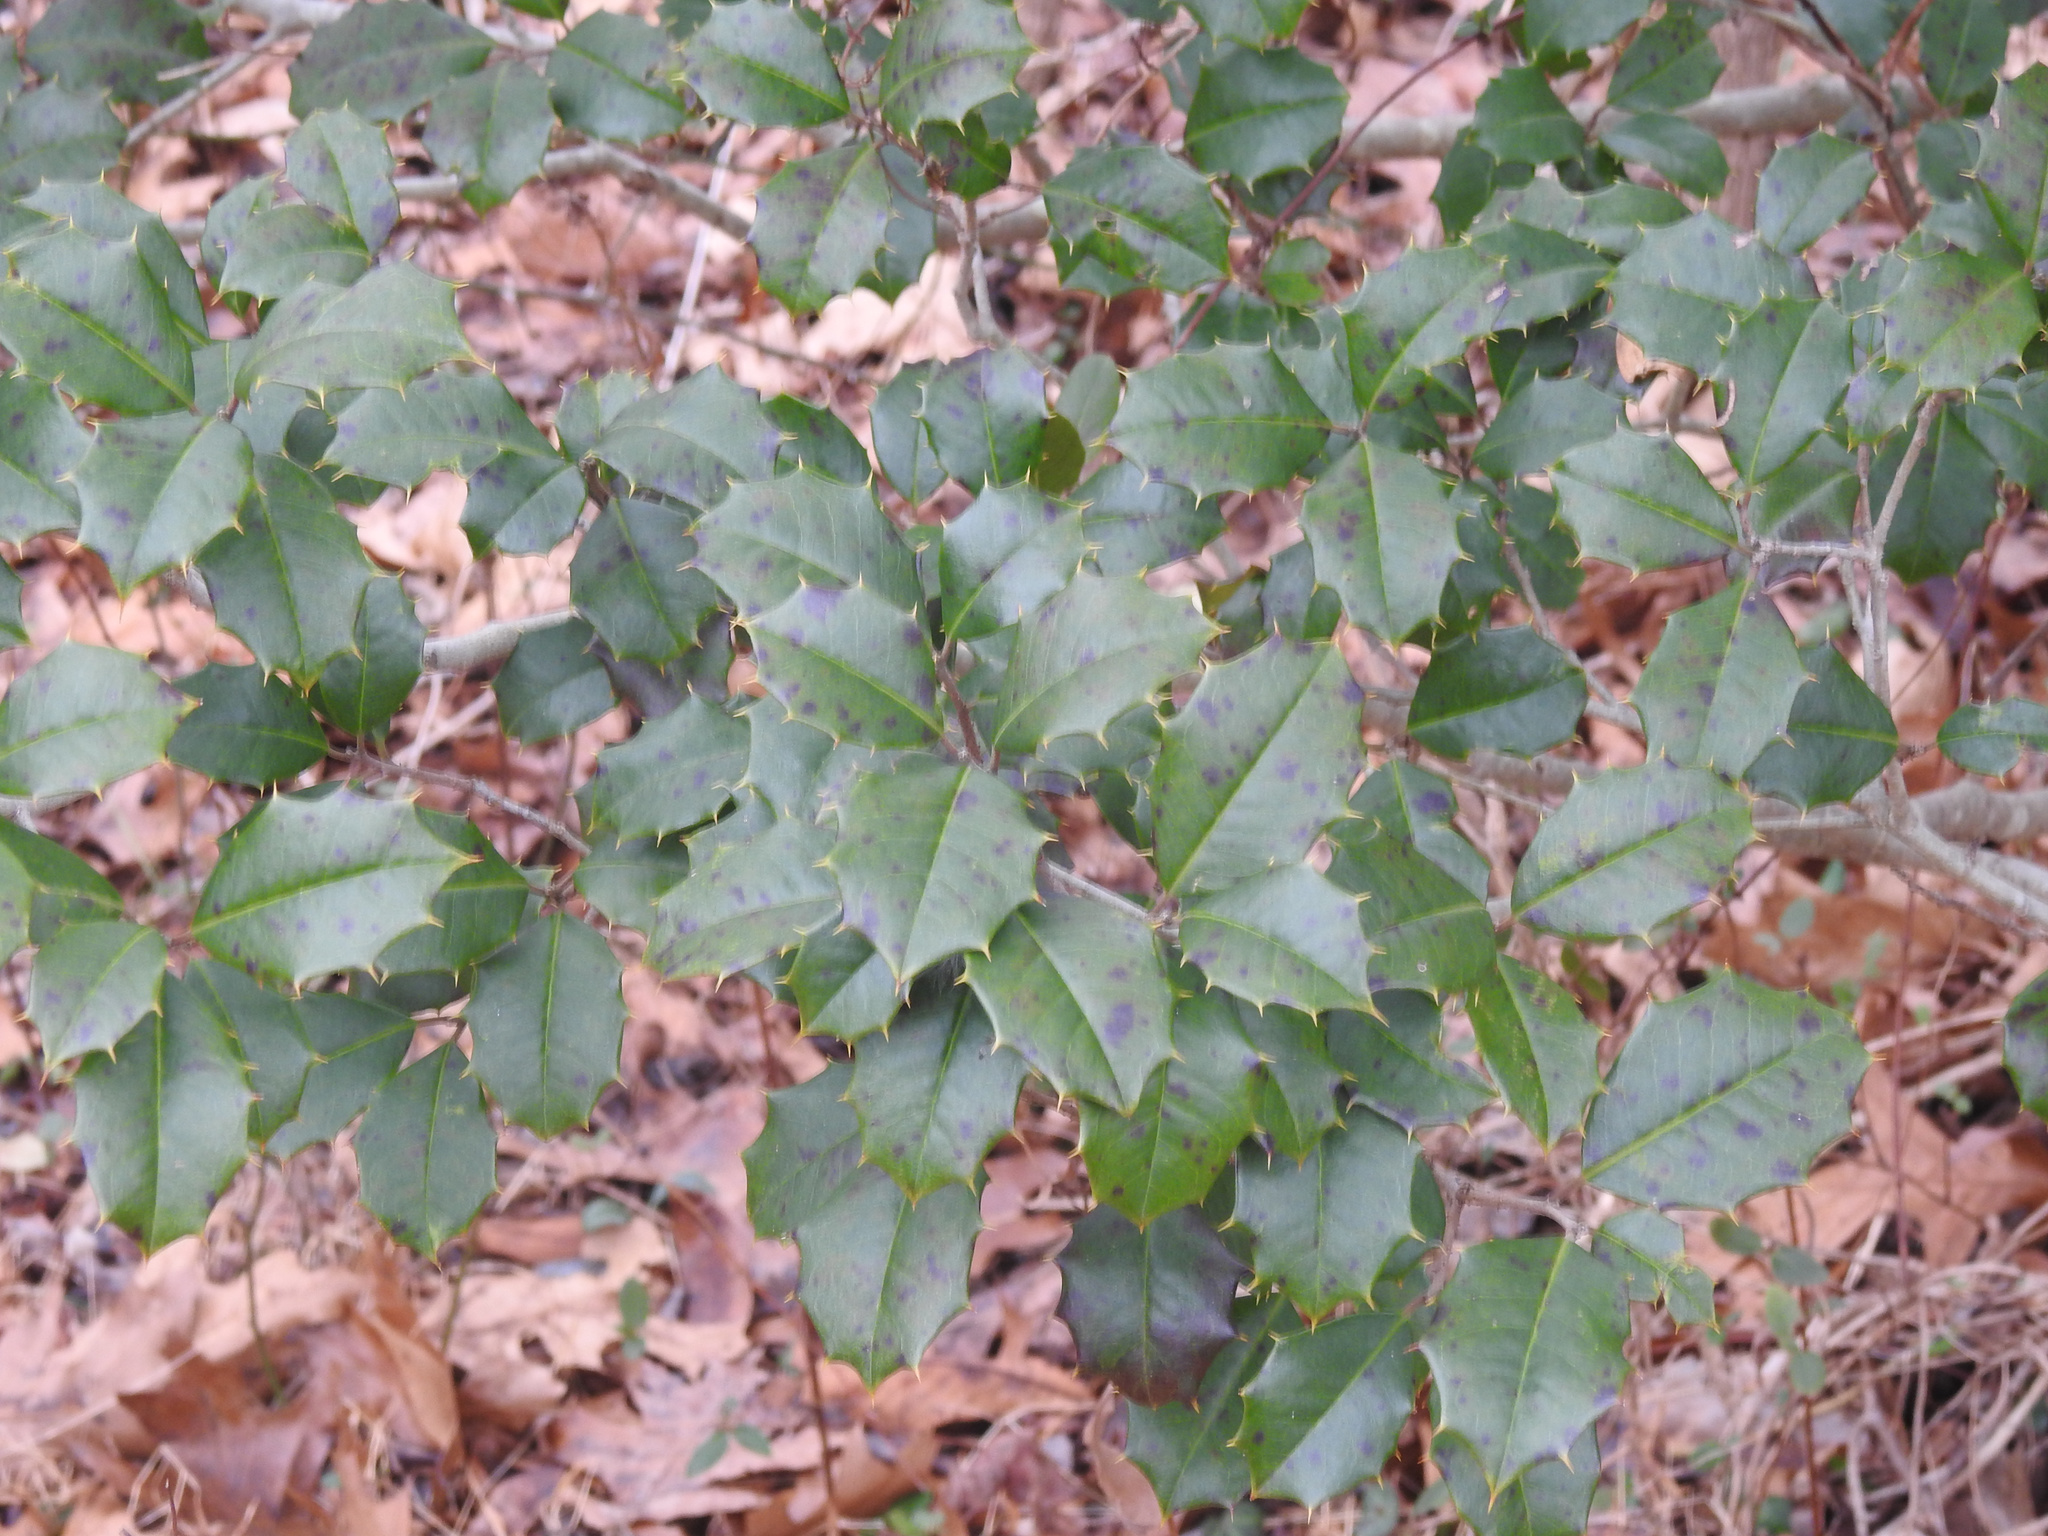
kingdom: Plantae
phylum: Tracheophyta
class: Magnoliopsida
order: Aquifoliales
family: Aquifoliaceae
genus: Ilex
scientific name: Ilex opaca
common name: American holly
